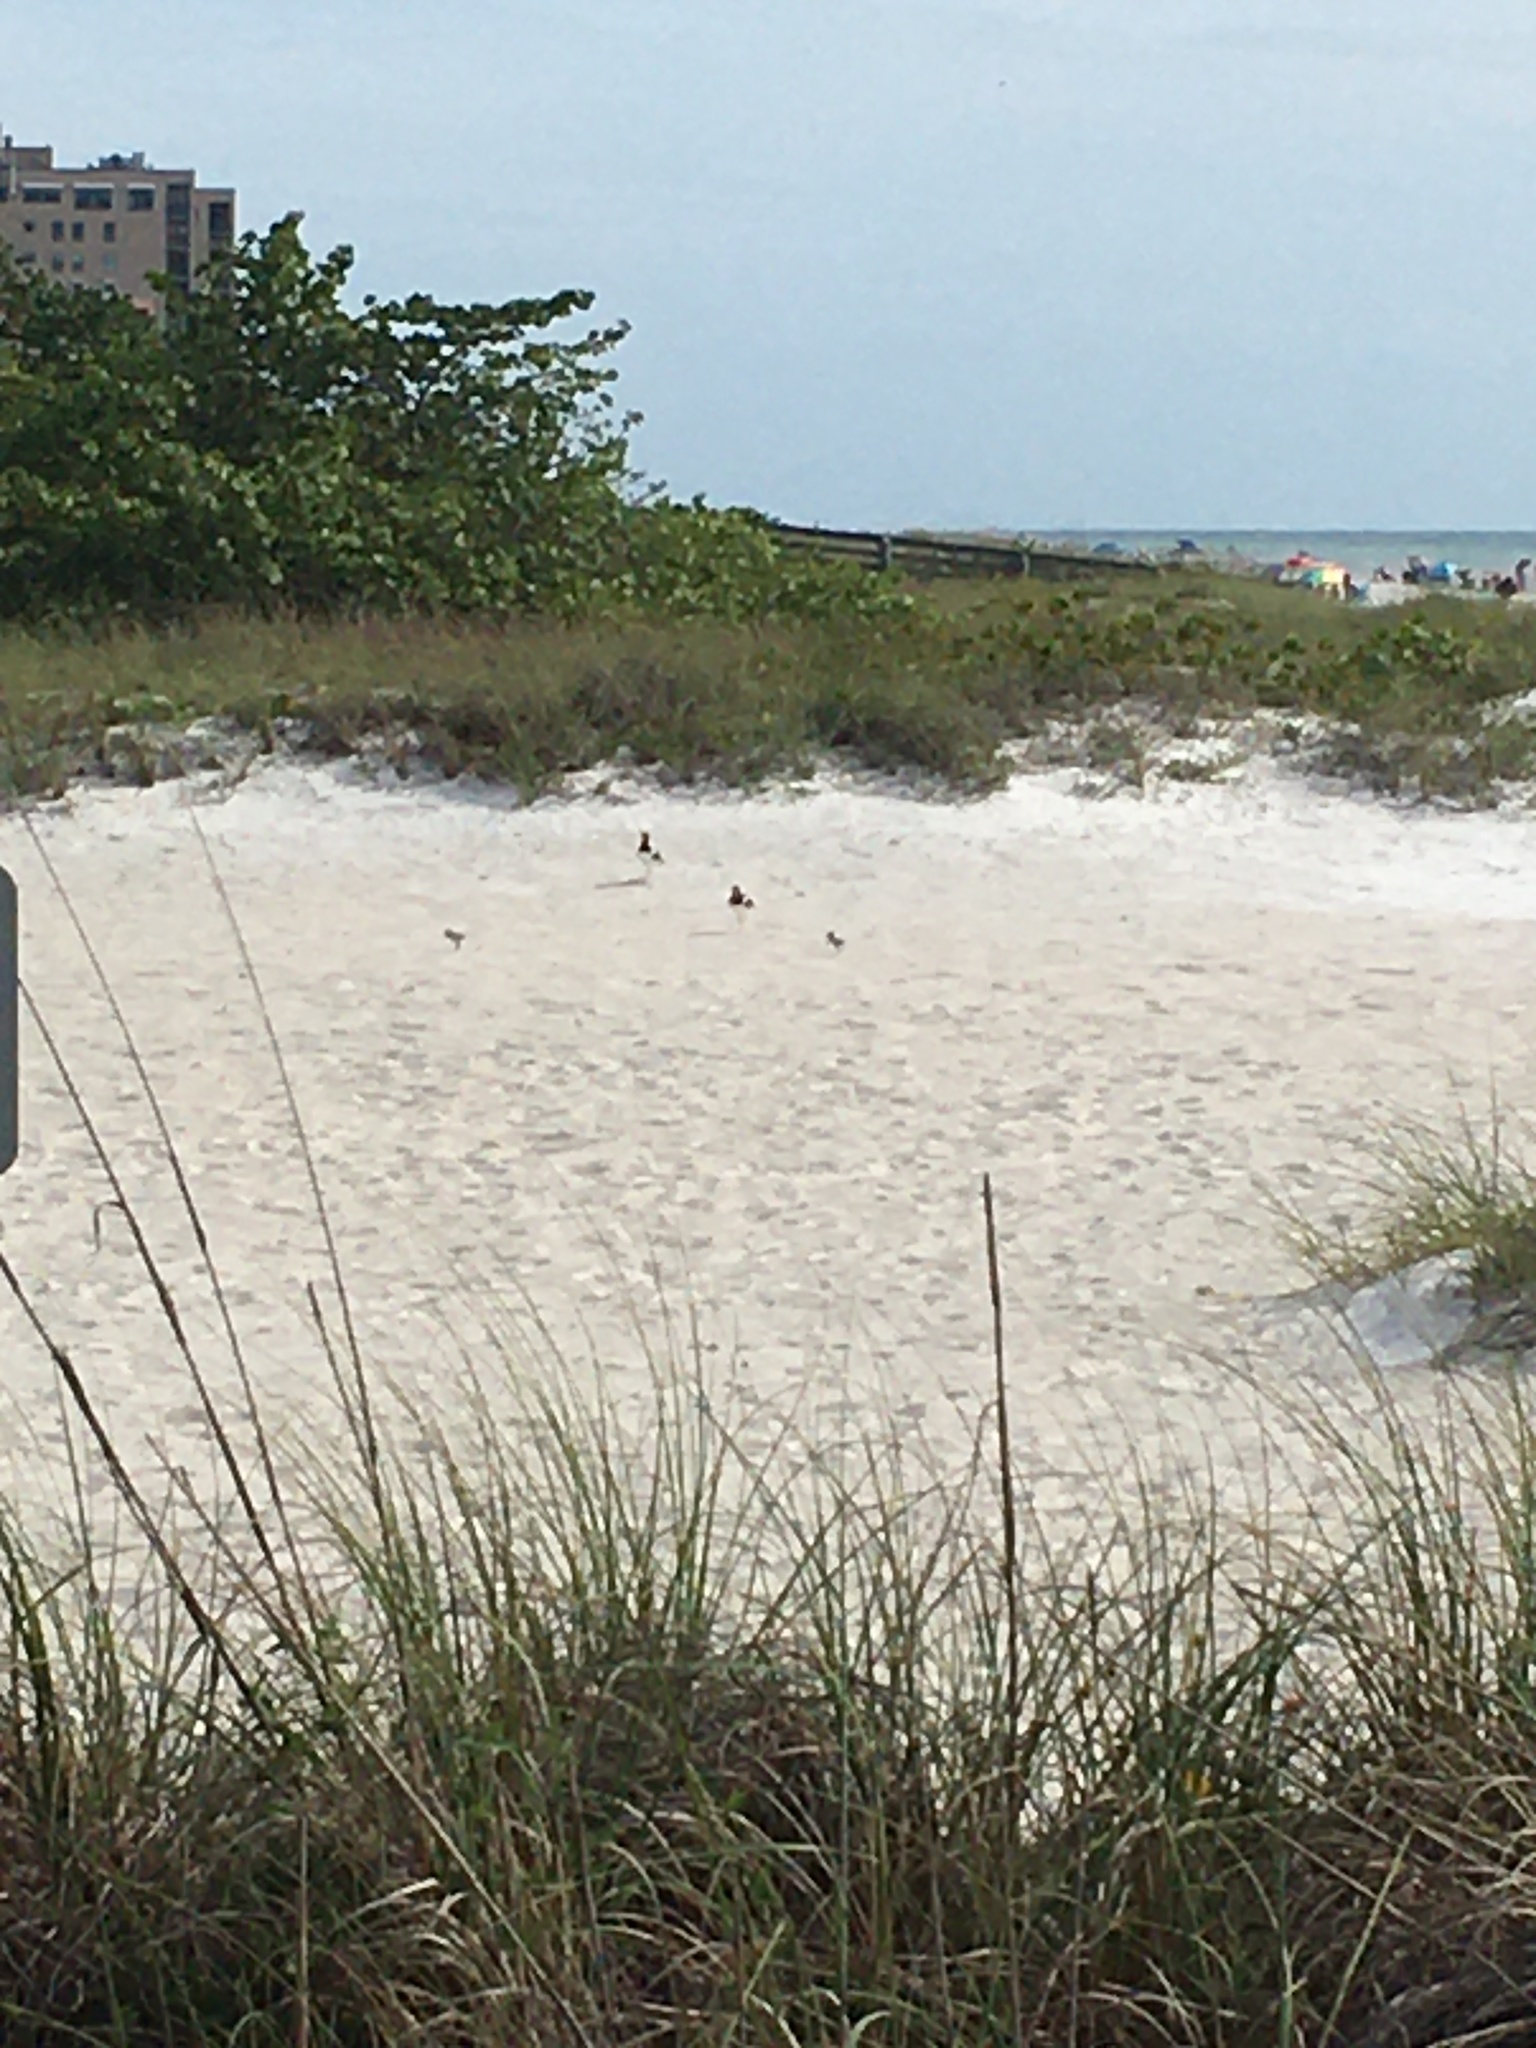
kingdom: Animalia
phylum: Chordata
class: Aves
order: Charadriiformes
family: Haematopodidae
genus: Haematopus
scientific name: Haematopus palliatus
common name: American oystercatcher
